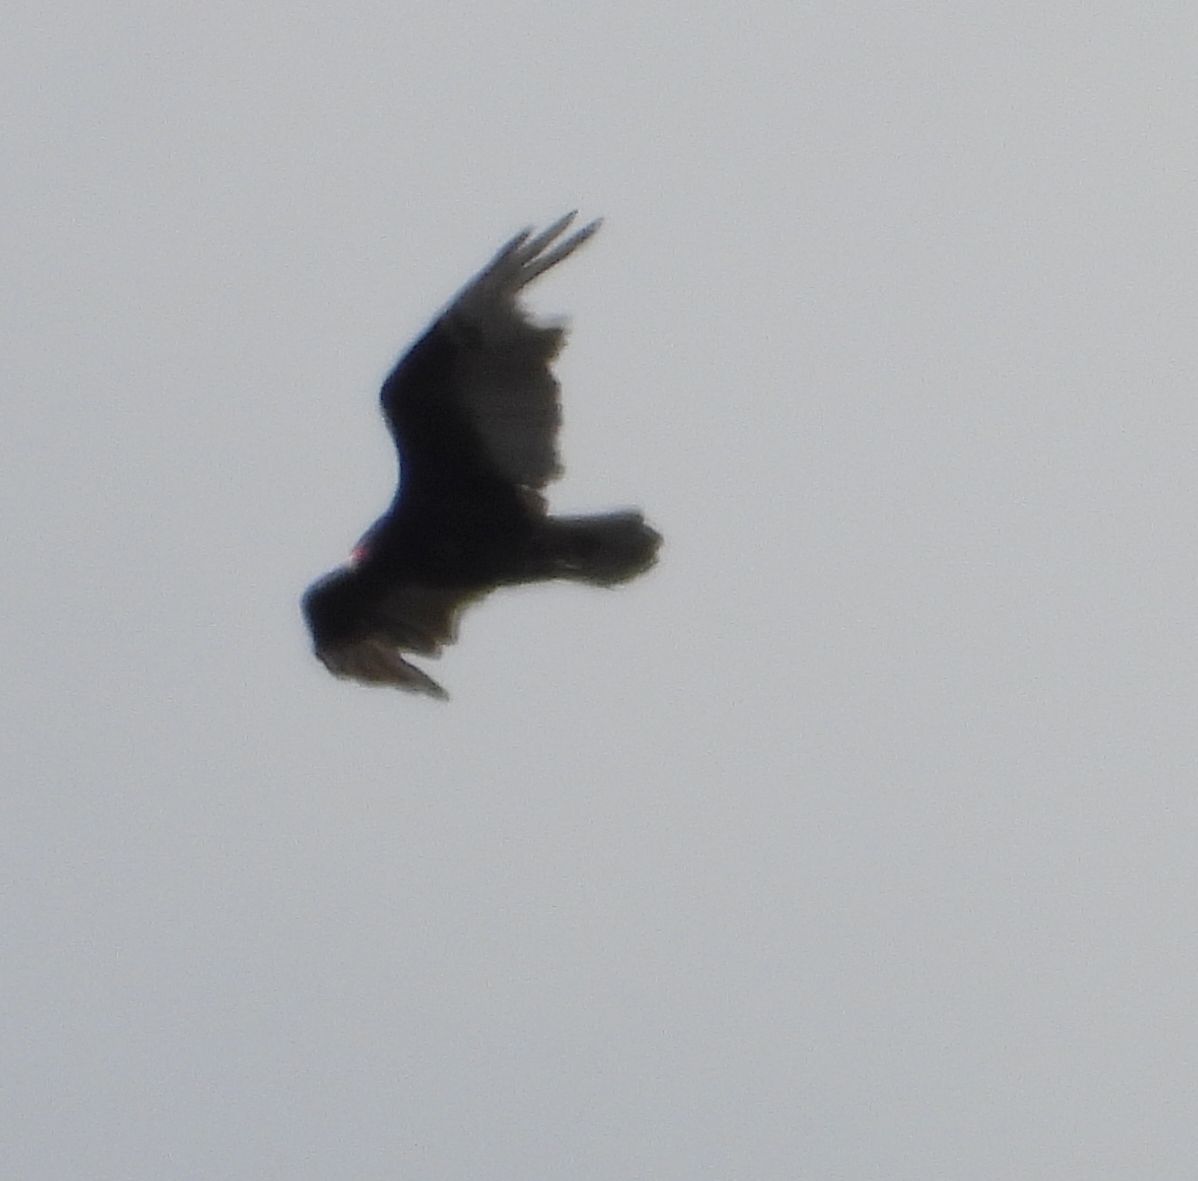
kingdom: Animalia
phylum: Chordata
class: Aves
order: Accipitriformes
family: Cathartidae
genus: Cathartes
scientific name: Cathartes aura
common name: Turkey vulture
